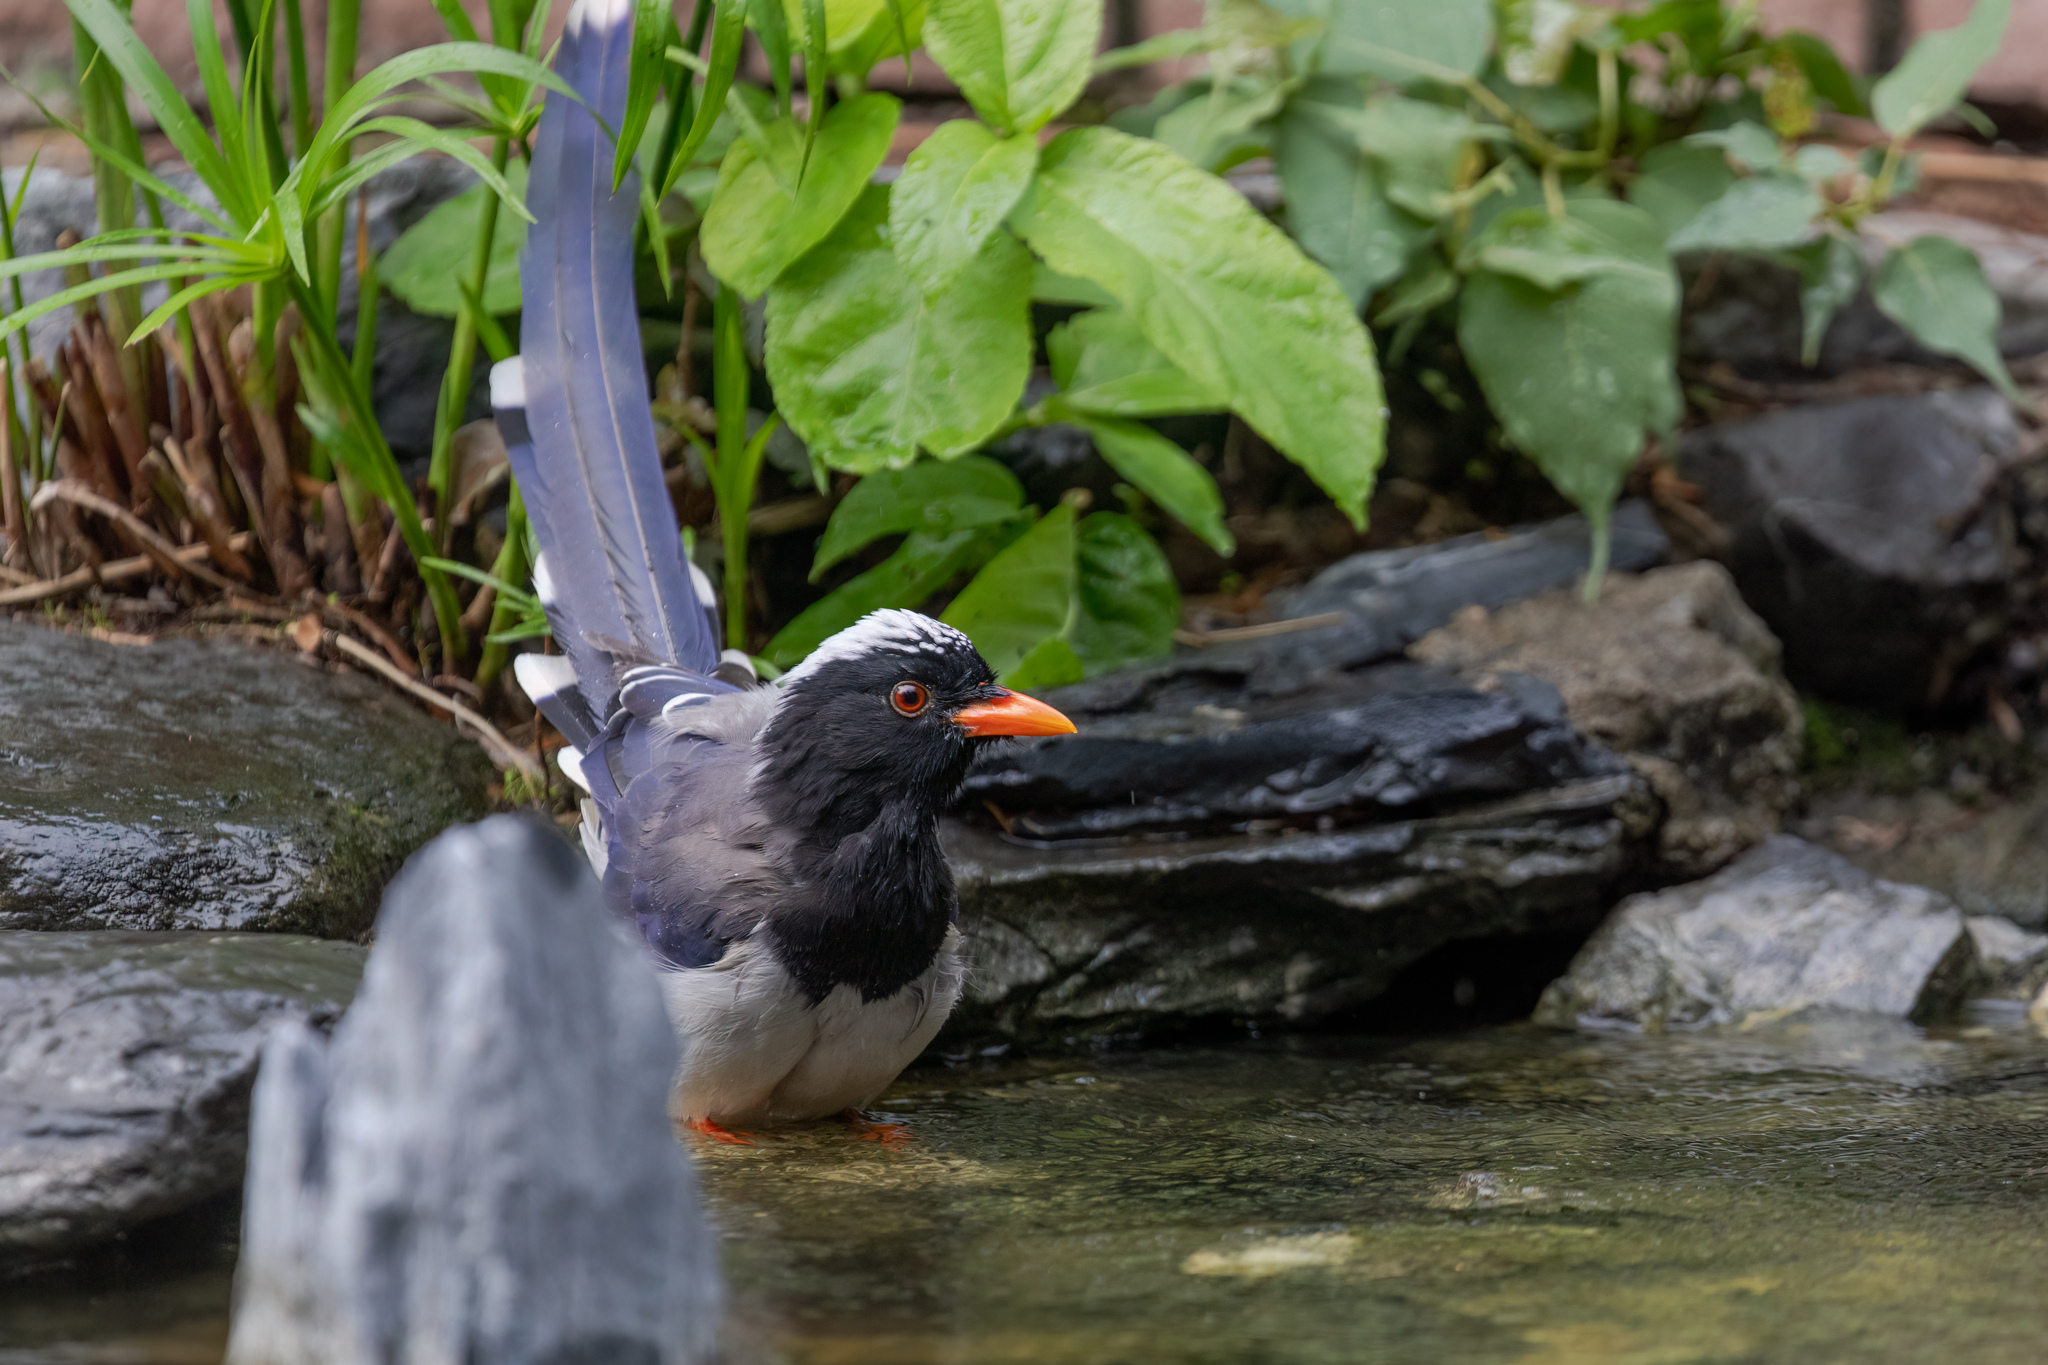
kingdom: Animalia
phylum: Chordata
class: Aves
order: Passeriformes
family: Corvidae
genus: Urocissa
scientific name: Urocissa erythroryncha
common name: Red-billed blue magpie
